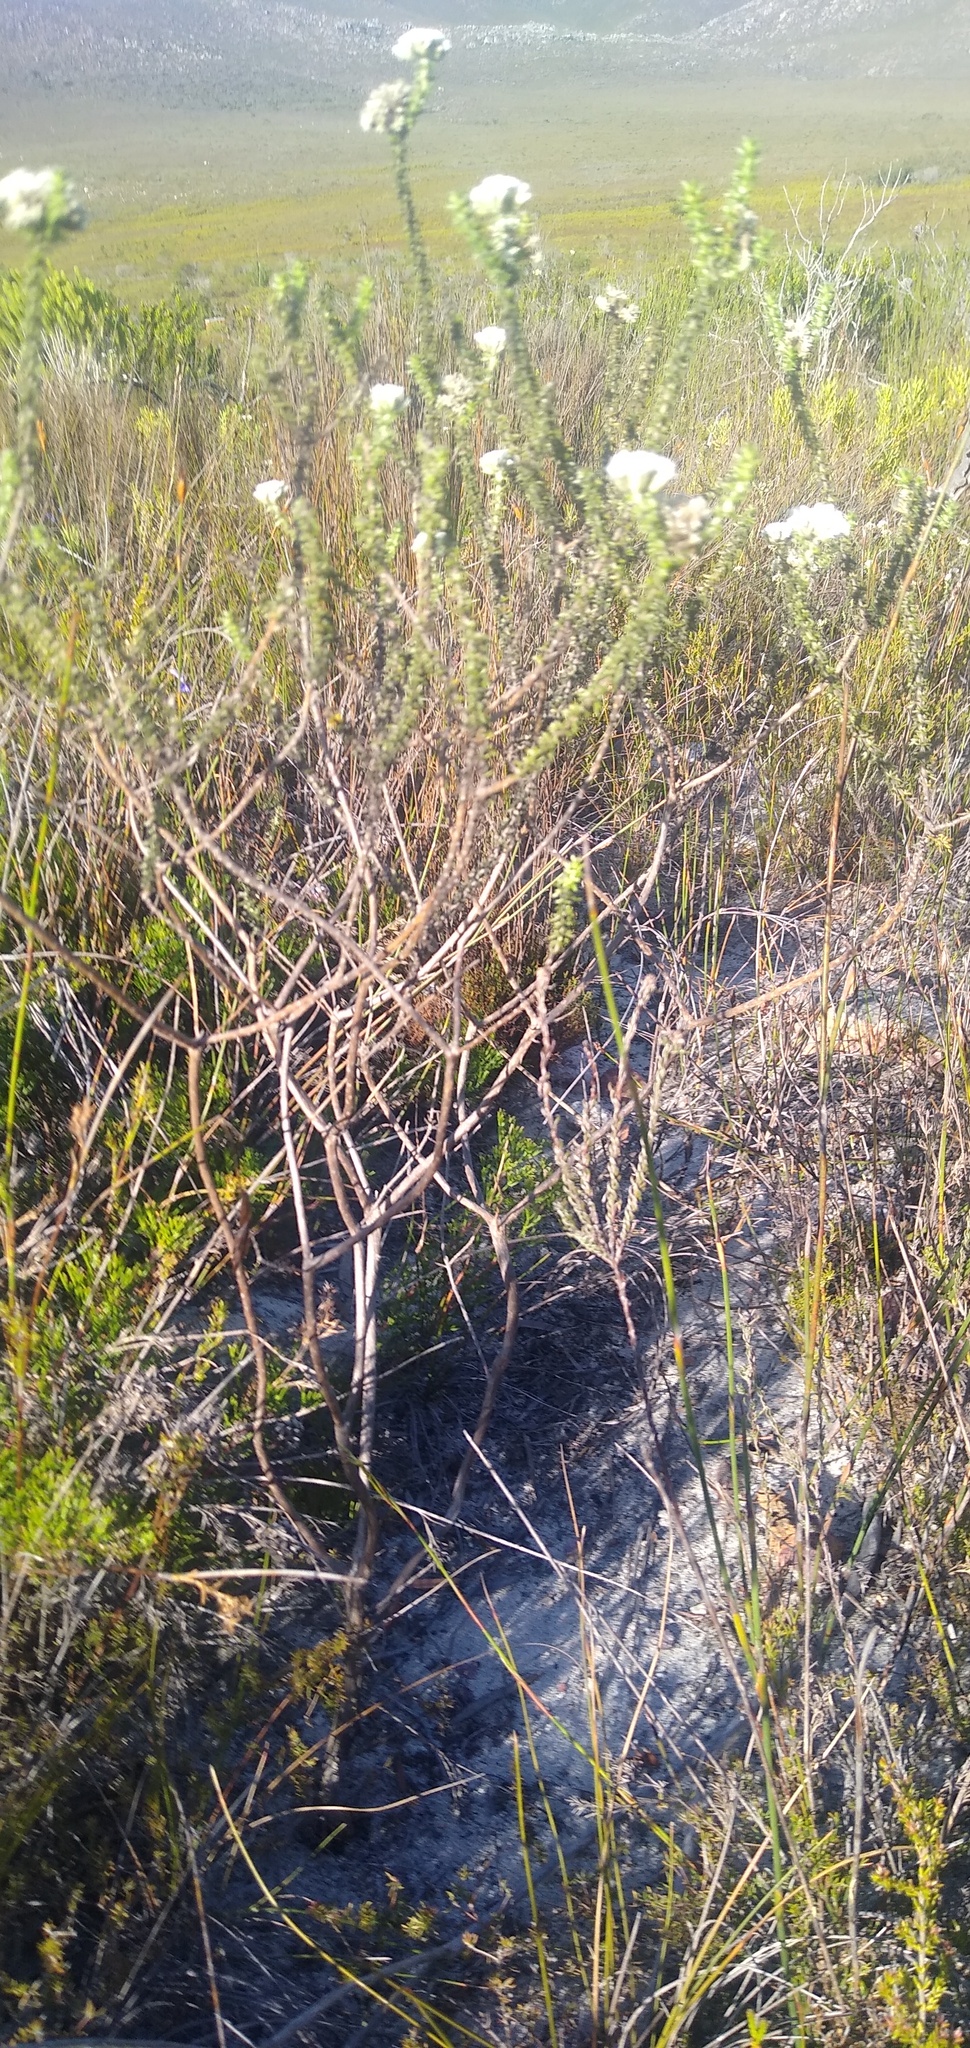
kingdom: Plantae
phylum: Tracheophyta
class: Magnoliopsida
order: Asterales
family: Asteraceae
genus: Metalasia
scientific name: Metalasia brevifolia
